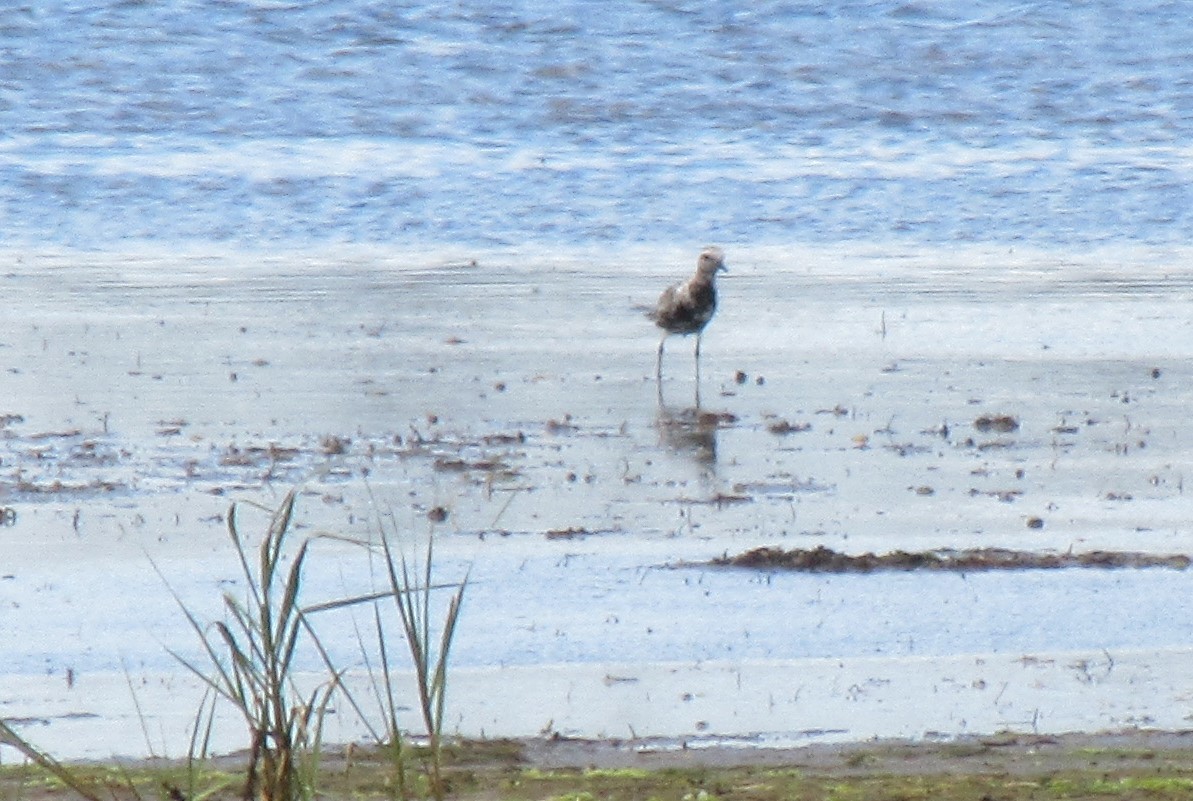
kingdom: Animalia
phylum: Chordata
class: Aves
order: Charadriiformes
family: Charadriidae
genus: Pluvialis
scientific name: Pluvialis squatarola
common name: Grey plover
